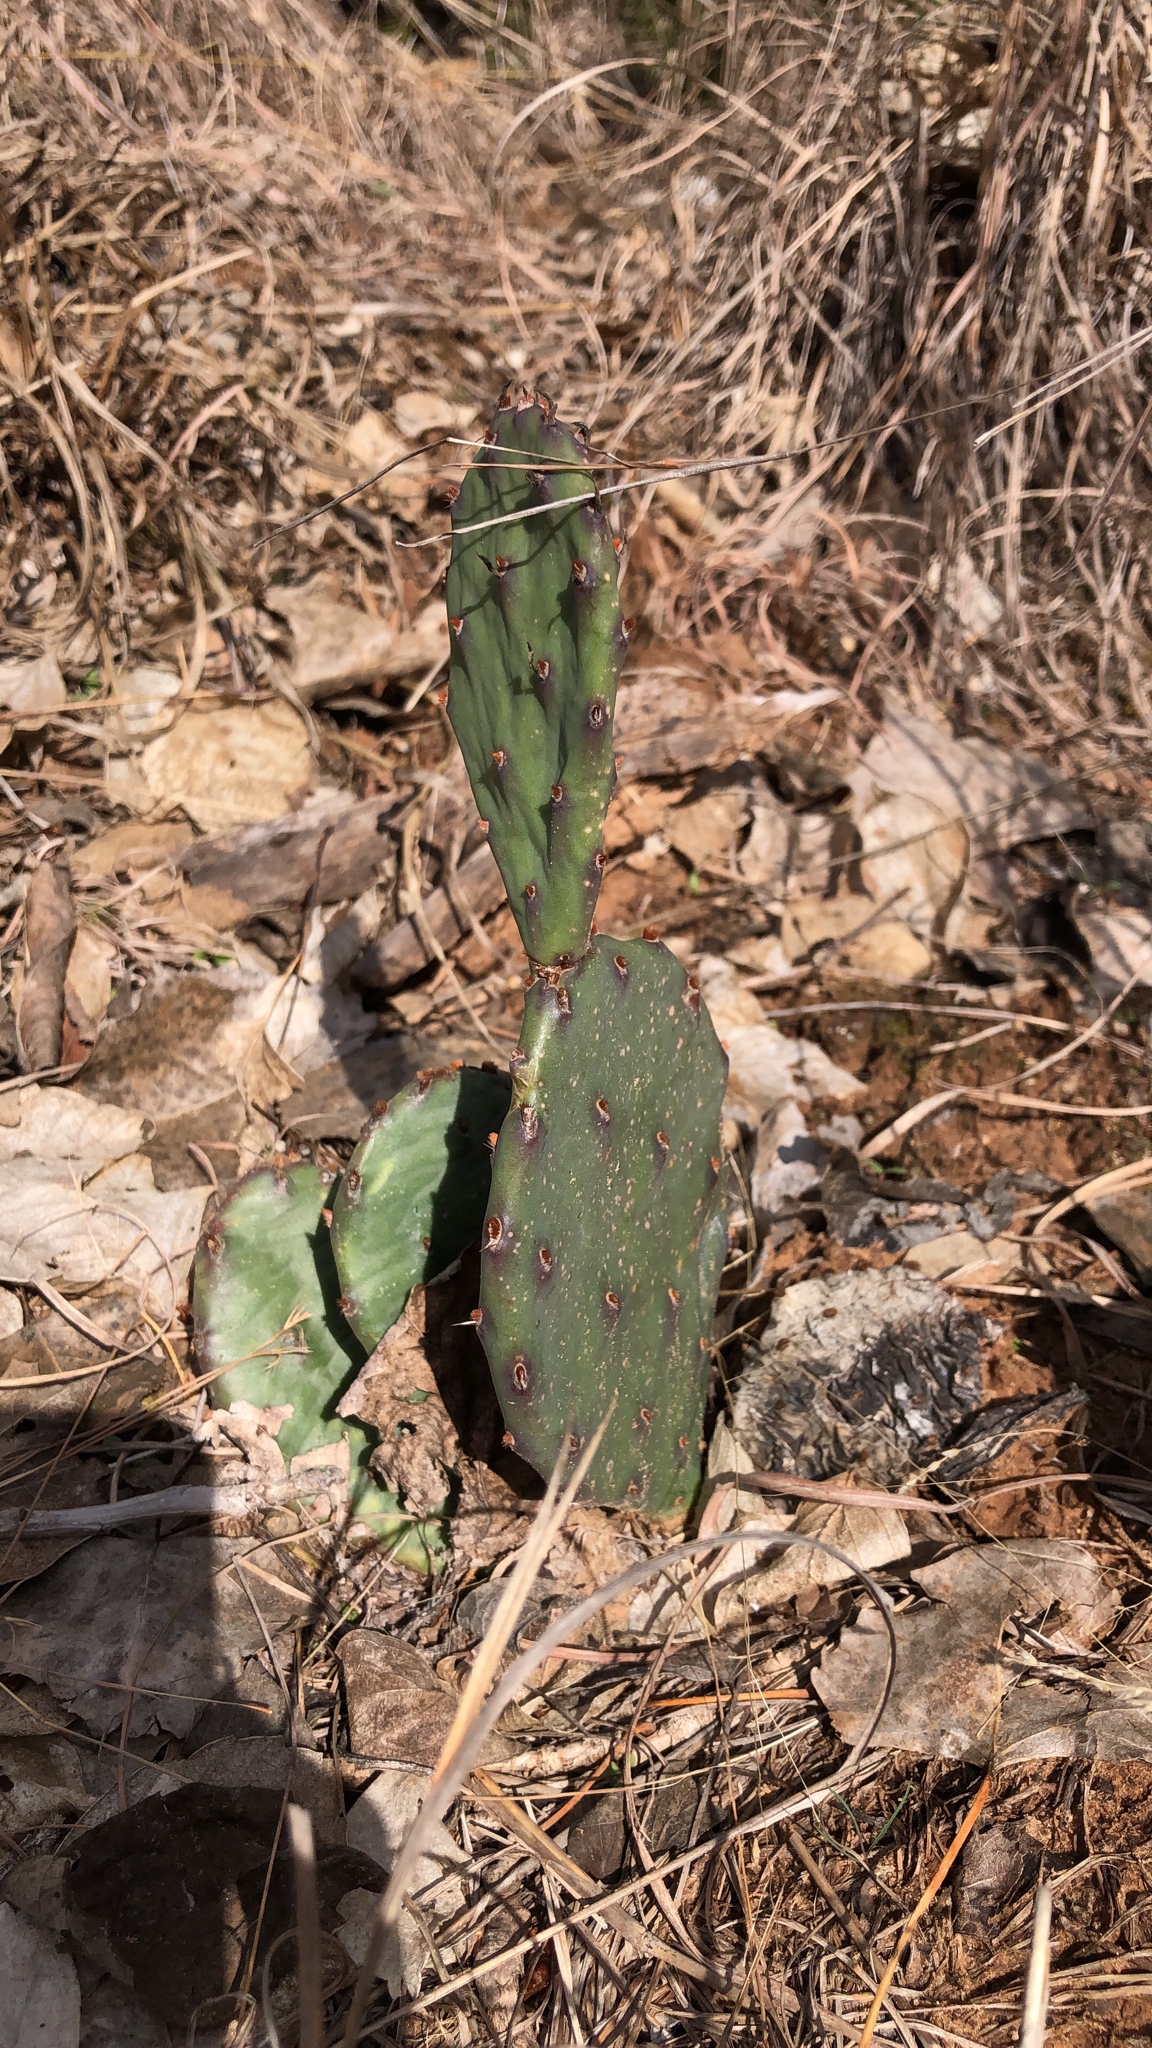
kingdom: Plantae
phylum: Tracheophyta
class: Magnoliopsida
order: Caryophyllales
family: Cactaceae
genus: Opuntia
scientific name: Opuntia macrorhiza
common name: Grassland pricklypear
